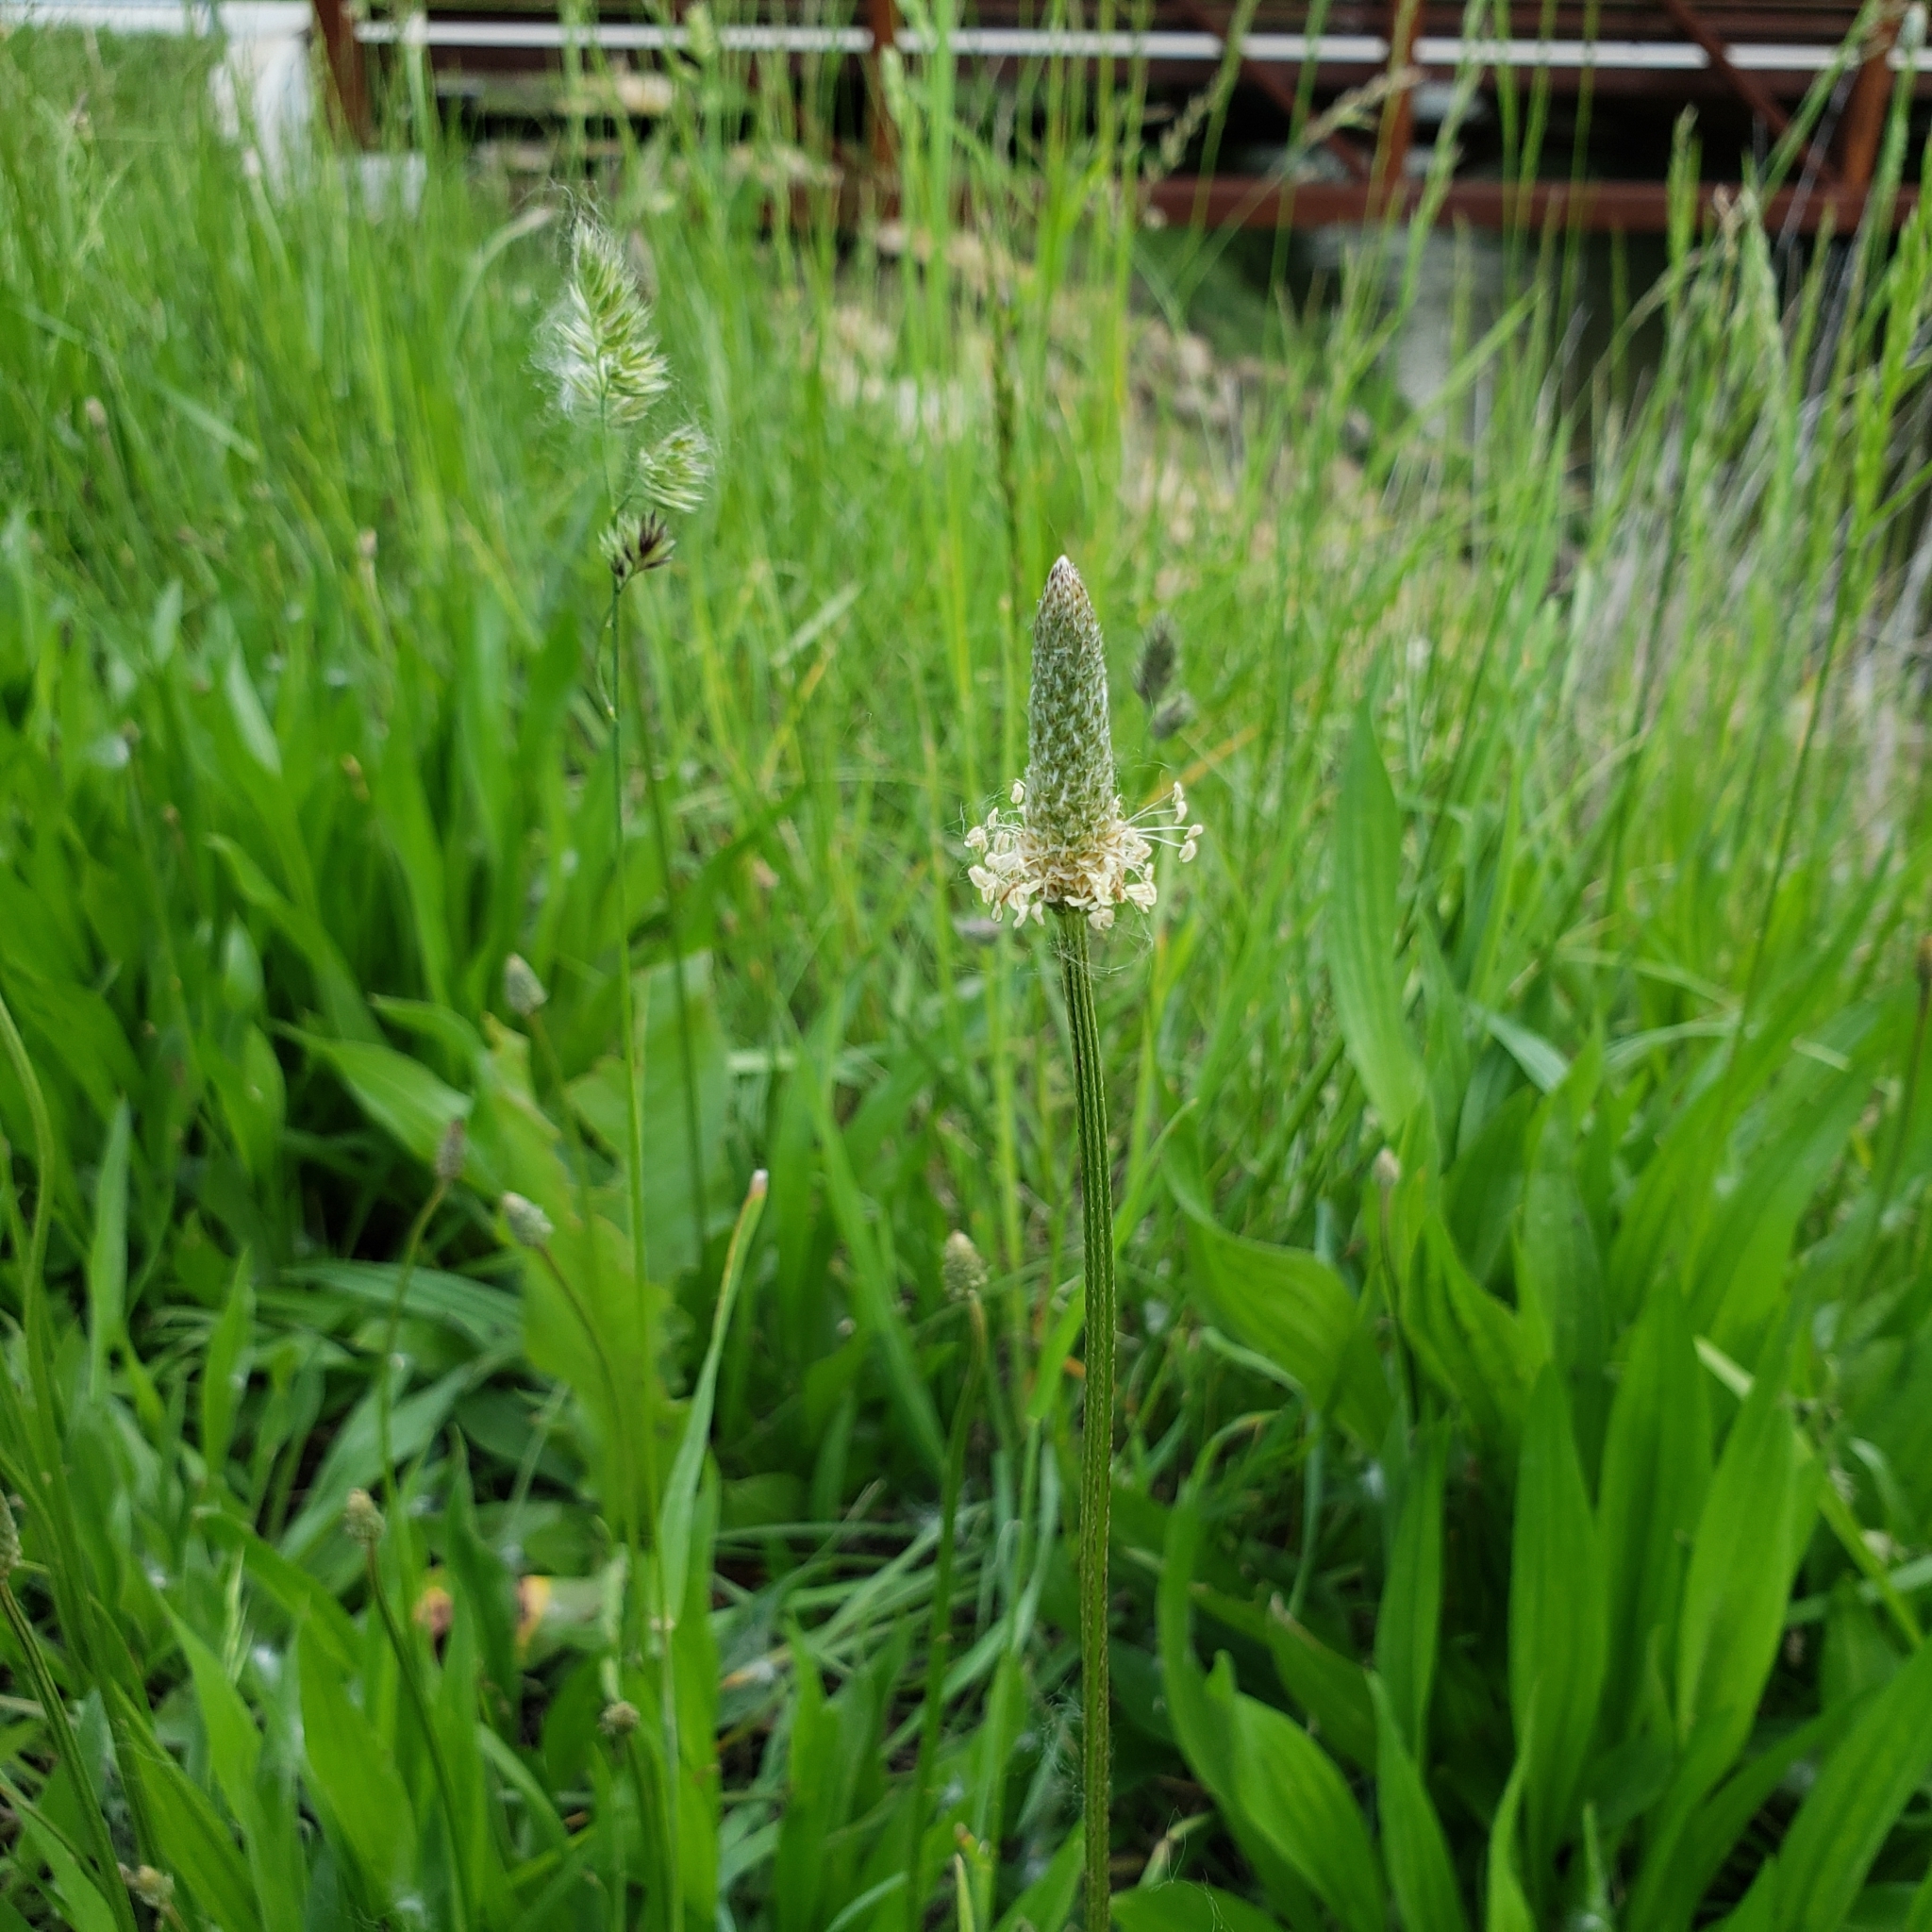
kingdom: Plantae
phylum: Tracheophyta
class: Magnoliopsida
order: Lamiales
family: Plantaginaceae
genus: Plantago
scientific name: Plantago lanceolata
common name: Ribwort plantain
